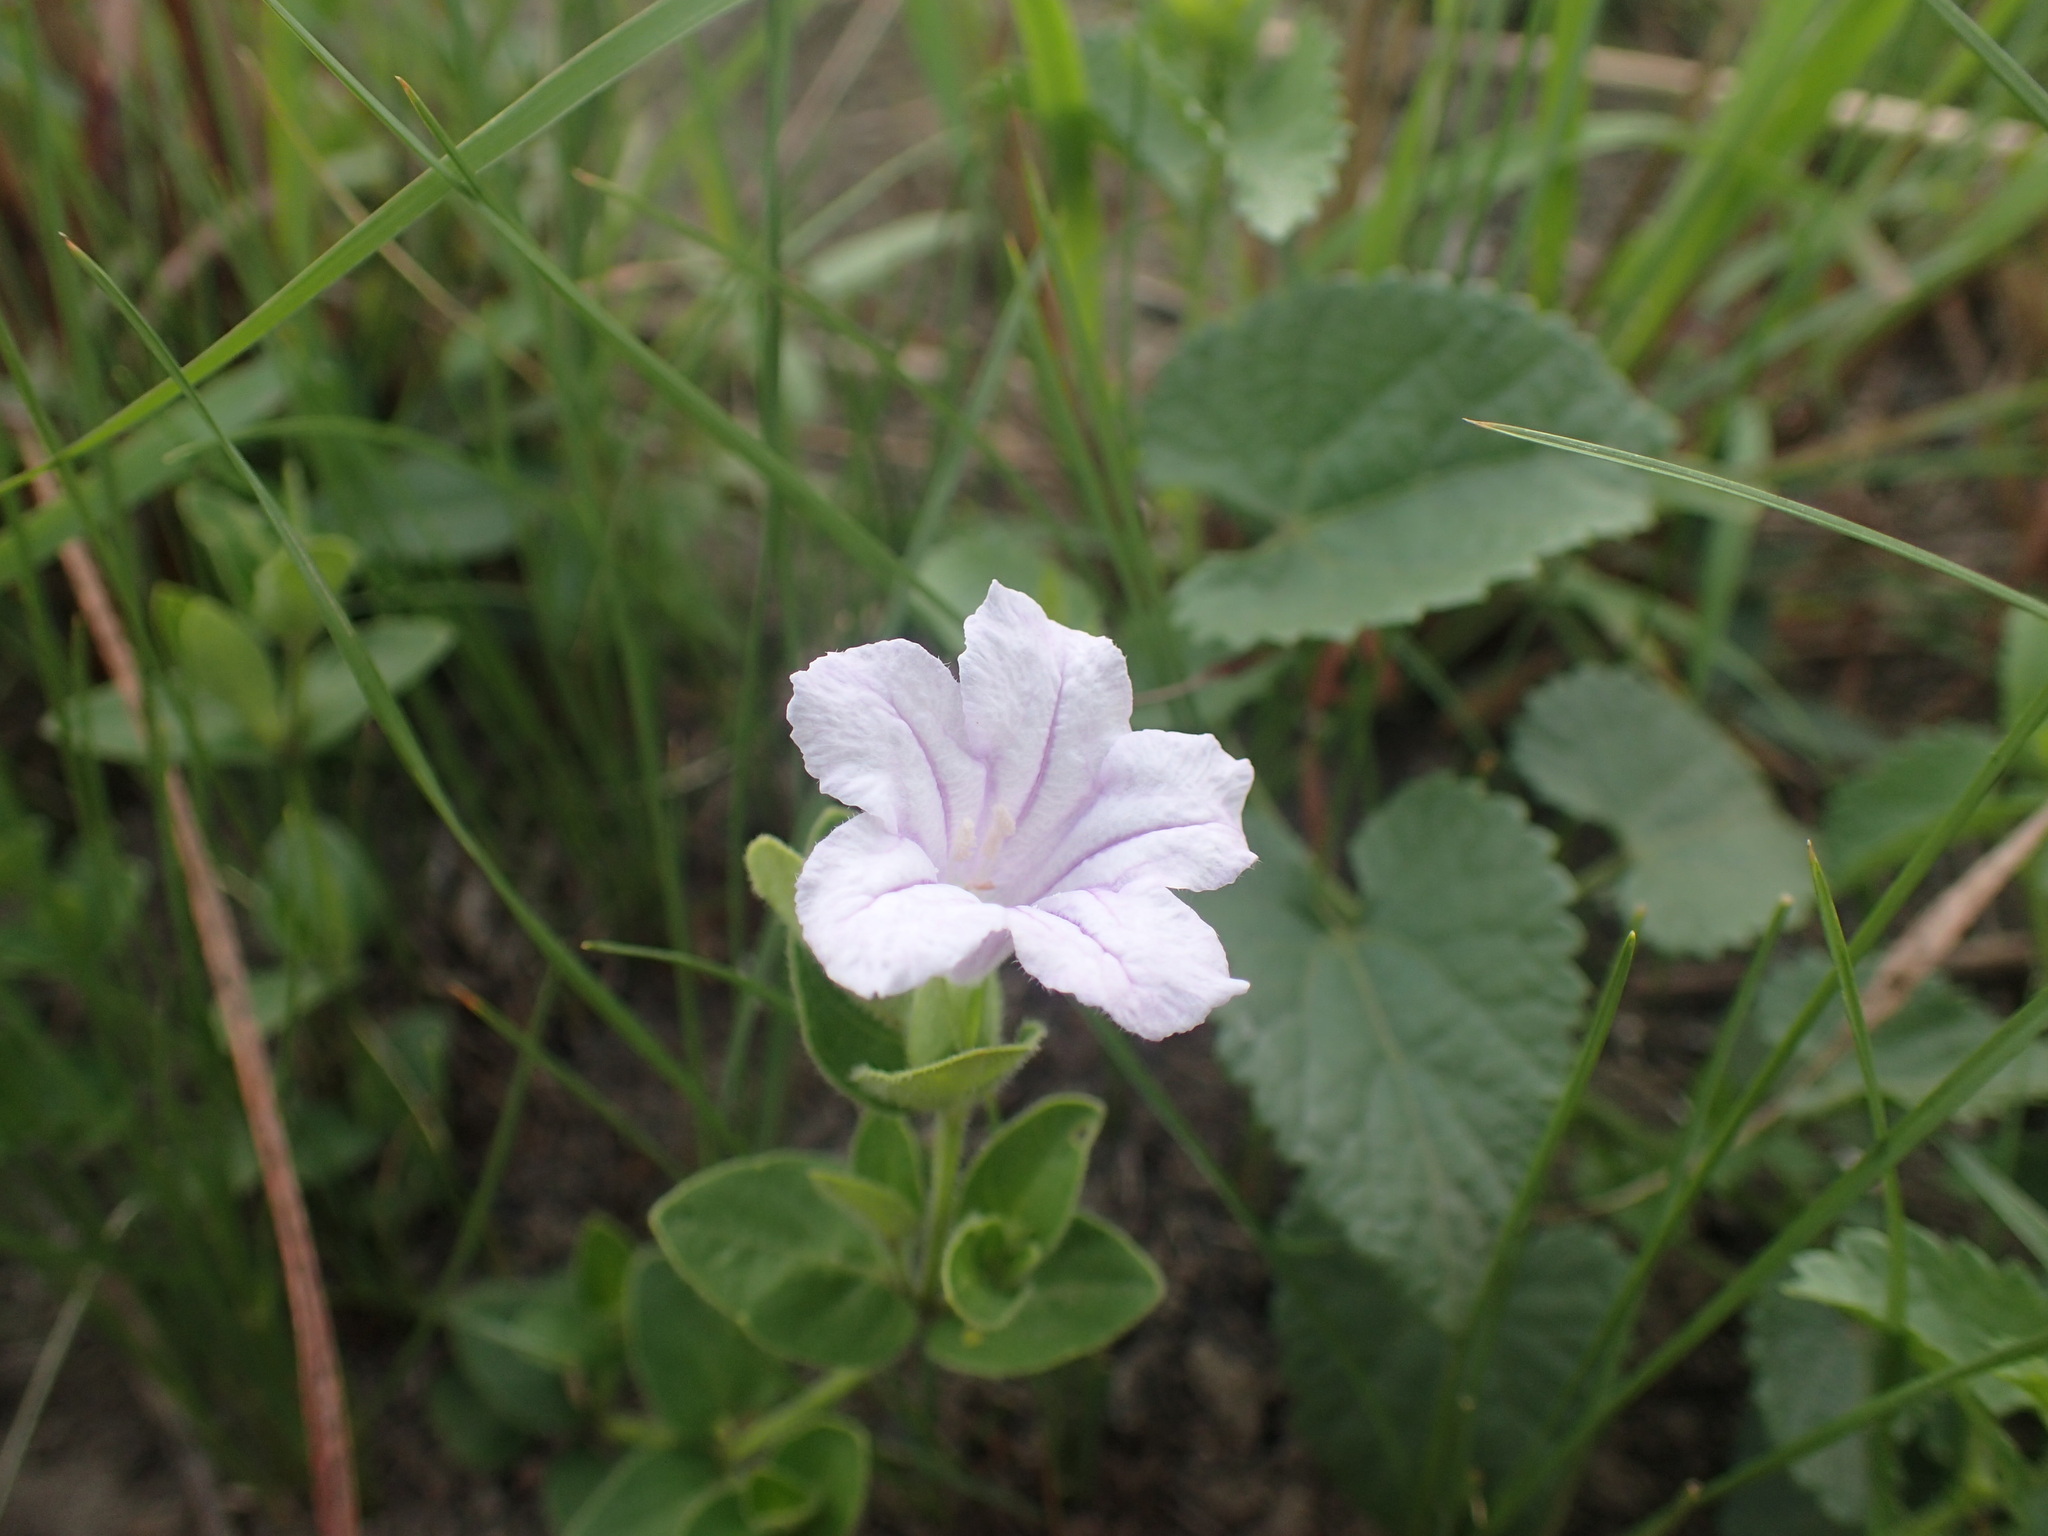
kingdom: Plantae
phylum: Tracheophyta
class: Magnoliopsida
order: Lamiales
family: Acanthaceae
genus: Ruellia
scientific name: Ruellia cordata
